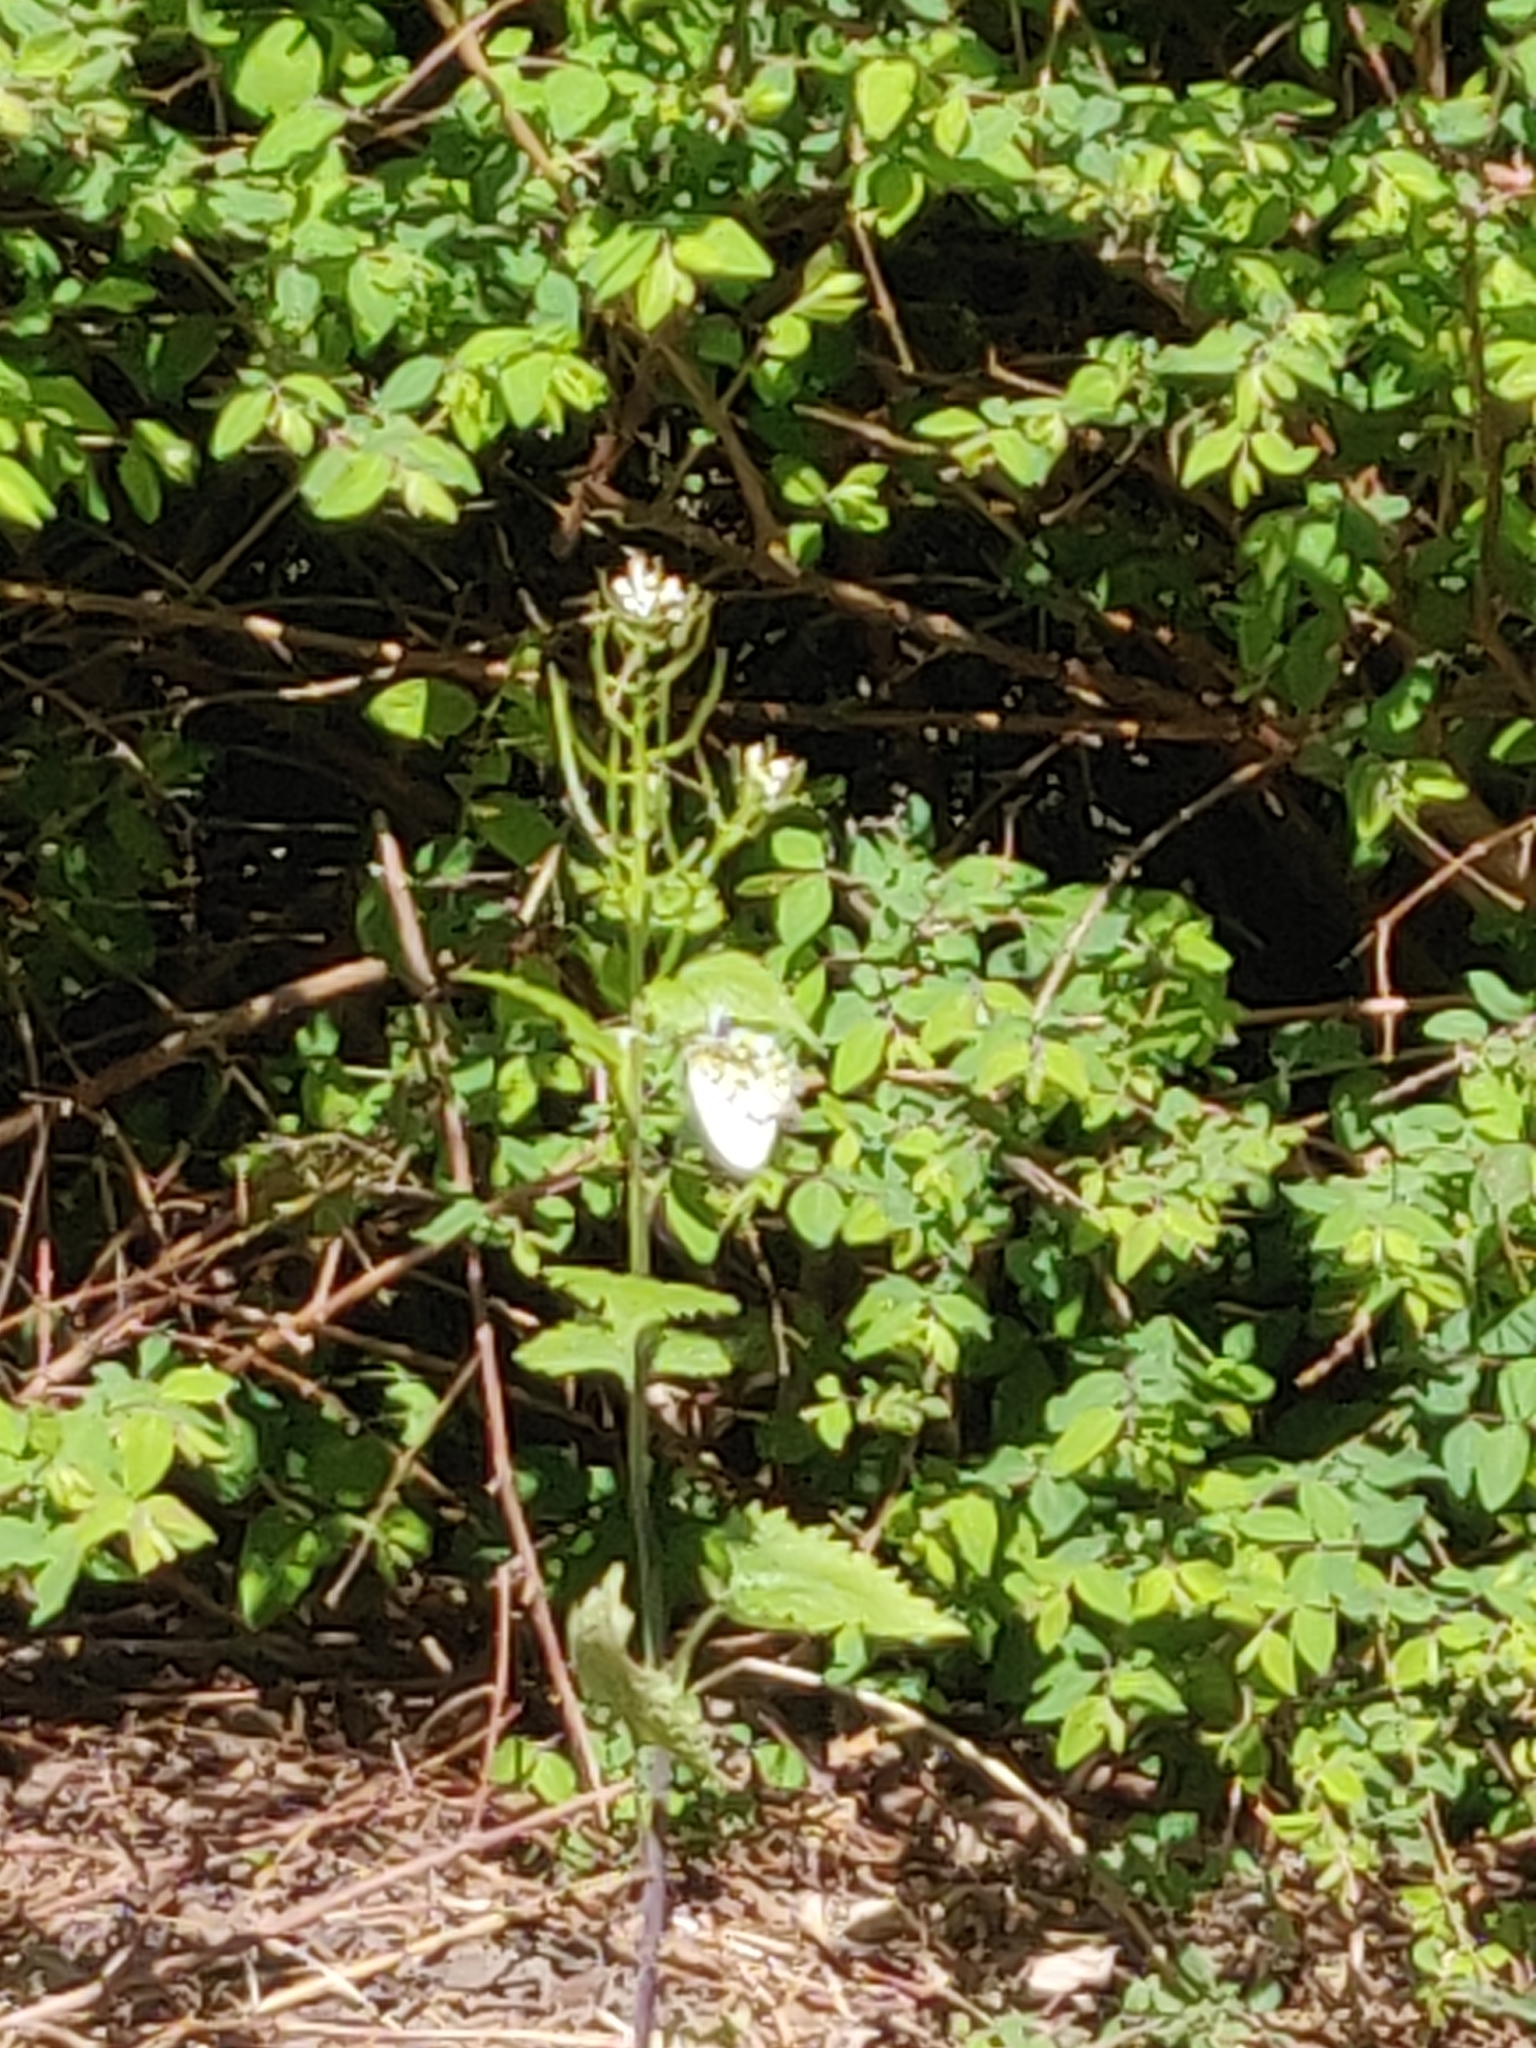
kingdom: Animalia
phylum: Arthropoda
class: Insecta
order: Lepidoptera
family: Pieridae
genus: Anthocharis
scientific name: Anthocharis cardamines
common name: Orange-tip
